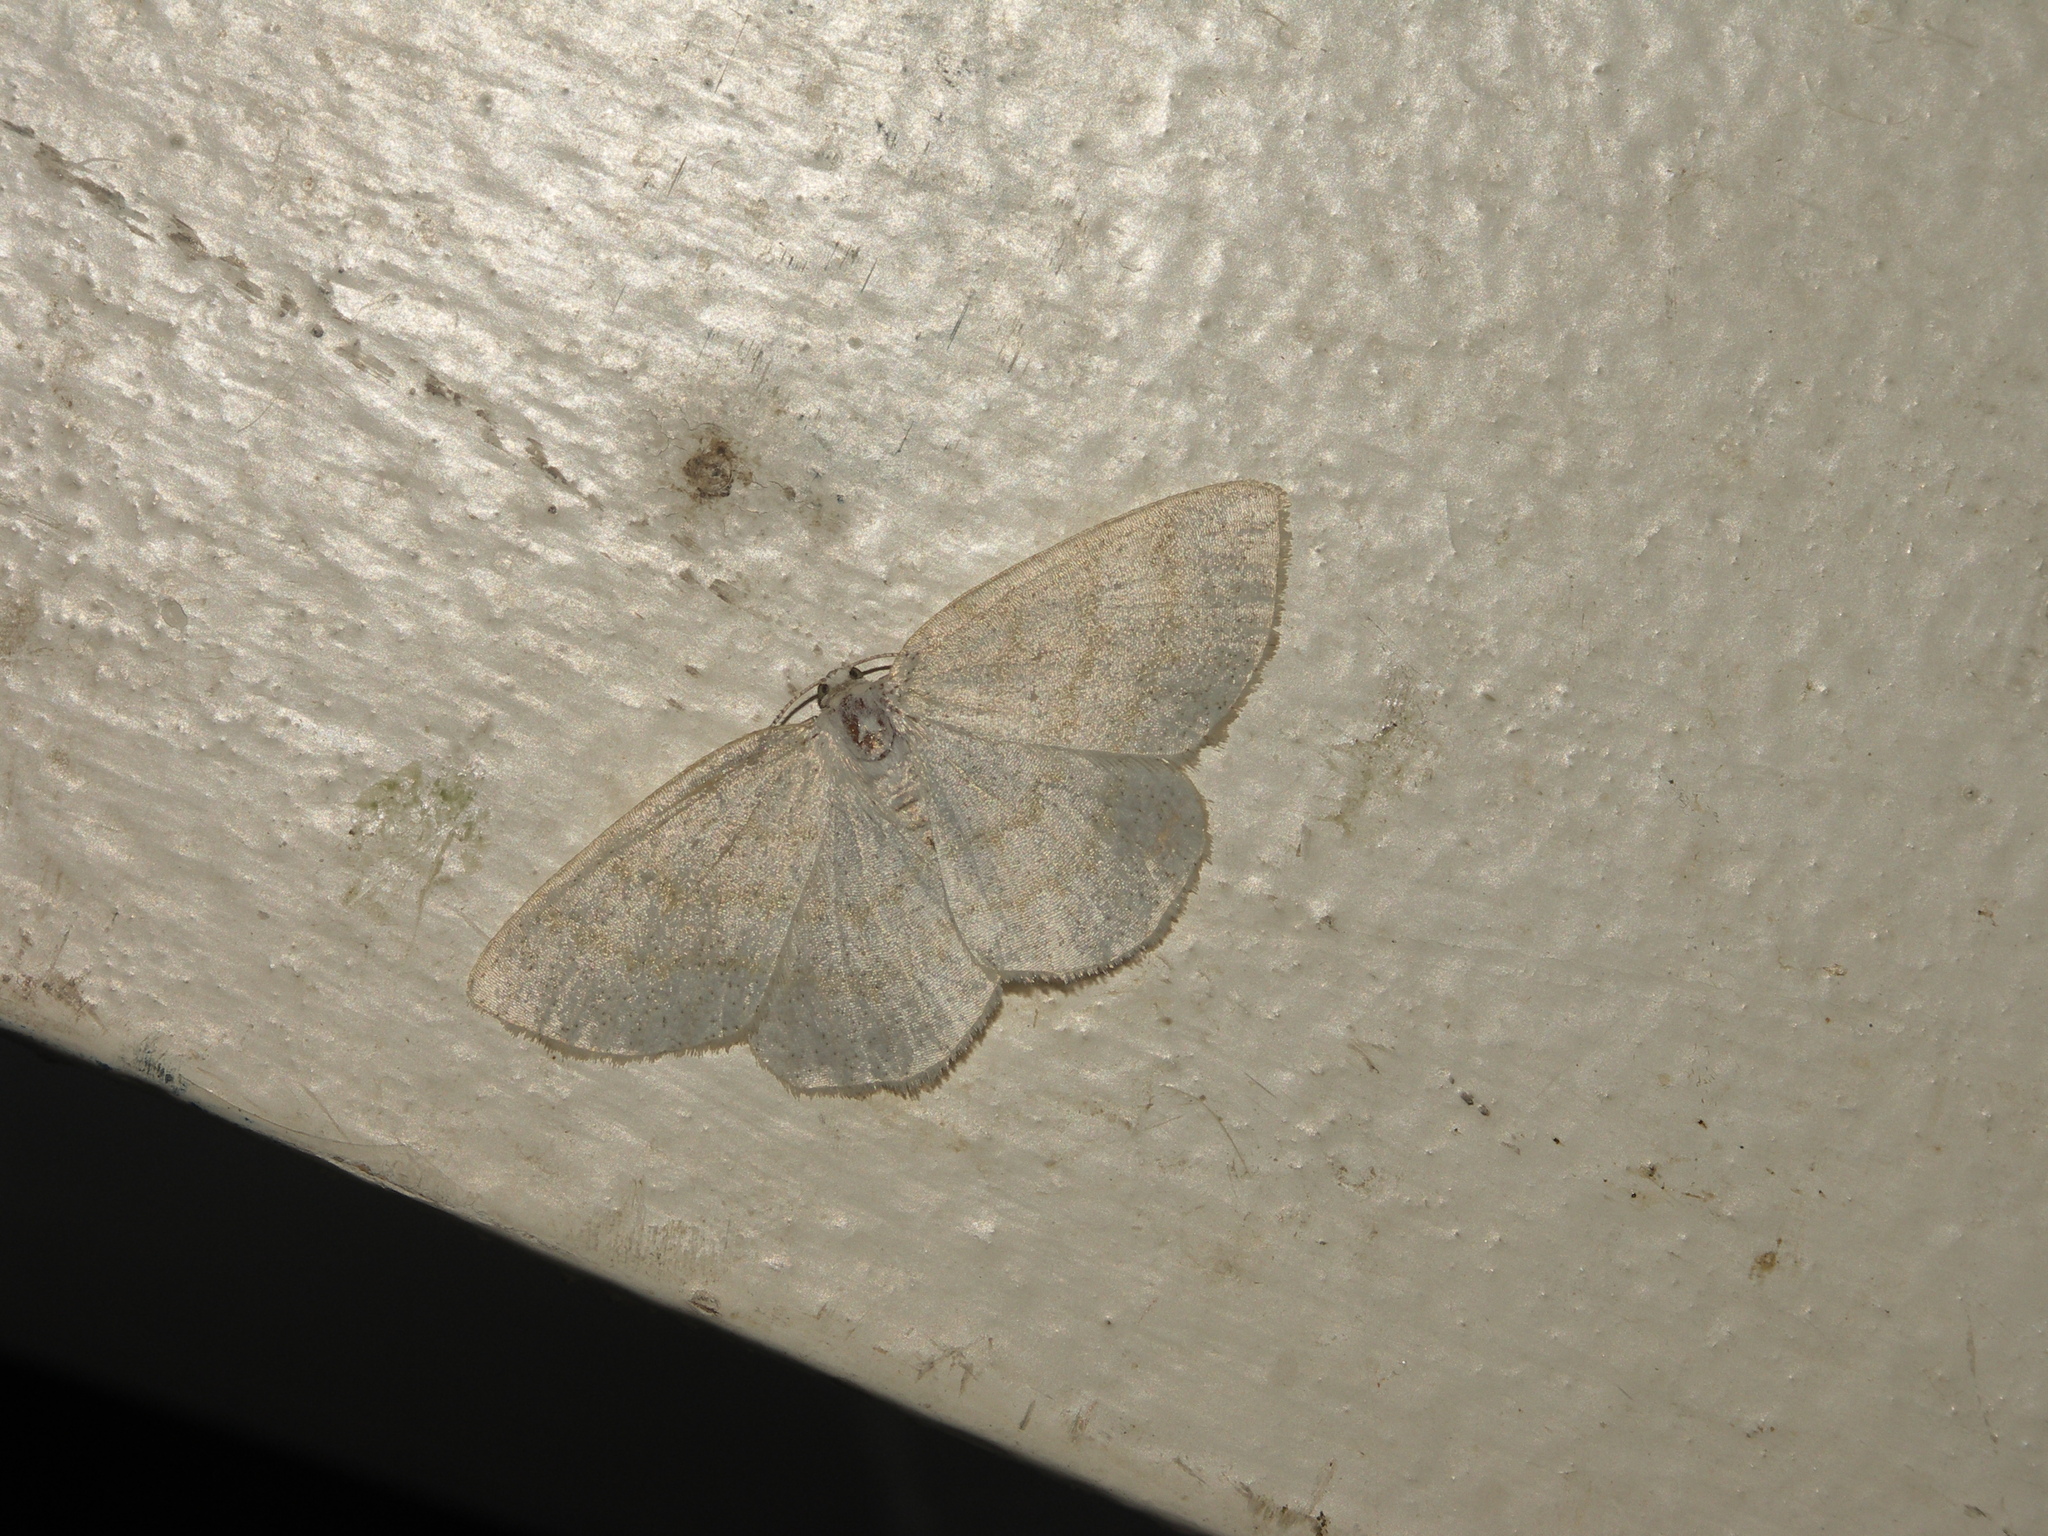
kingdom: Animalia
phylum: Arthropoda
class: Insecta
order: Lepidoptera
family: Geometridae
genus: Cabera
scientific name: Cabera exanthemata
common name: Common wave
